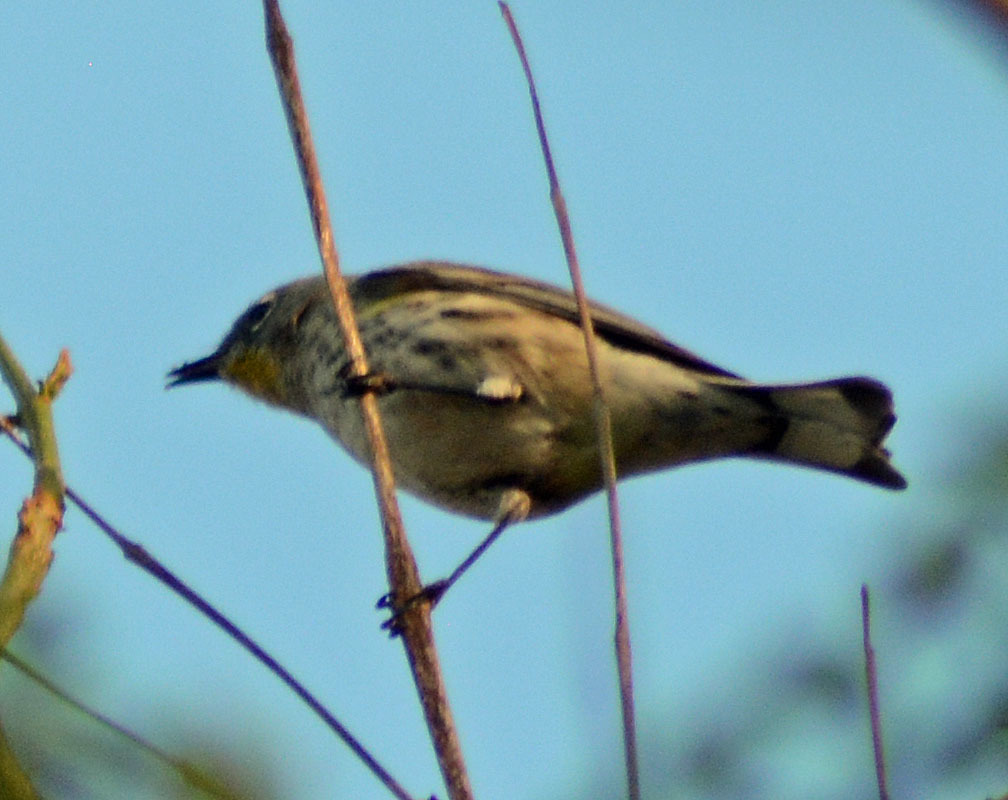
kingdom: Animalia
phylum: Chordata
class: Aves
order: Passeriformes
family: Parulidae
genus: Setophaga
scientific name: Setophaga coronata
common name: Myrtle warbler
